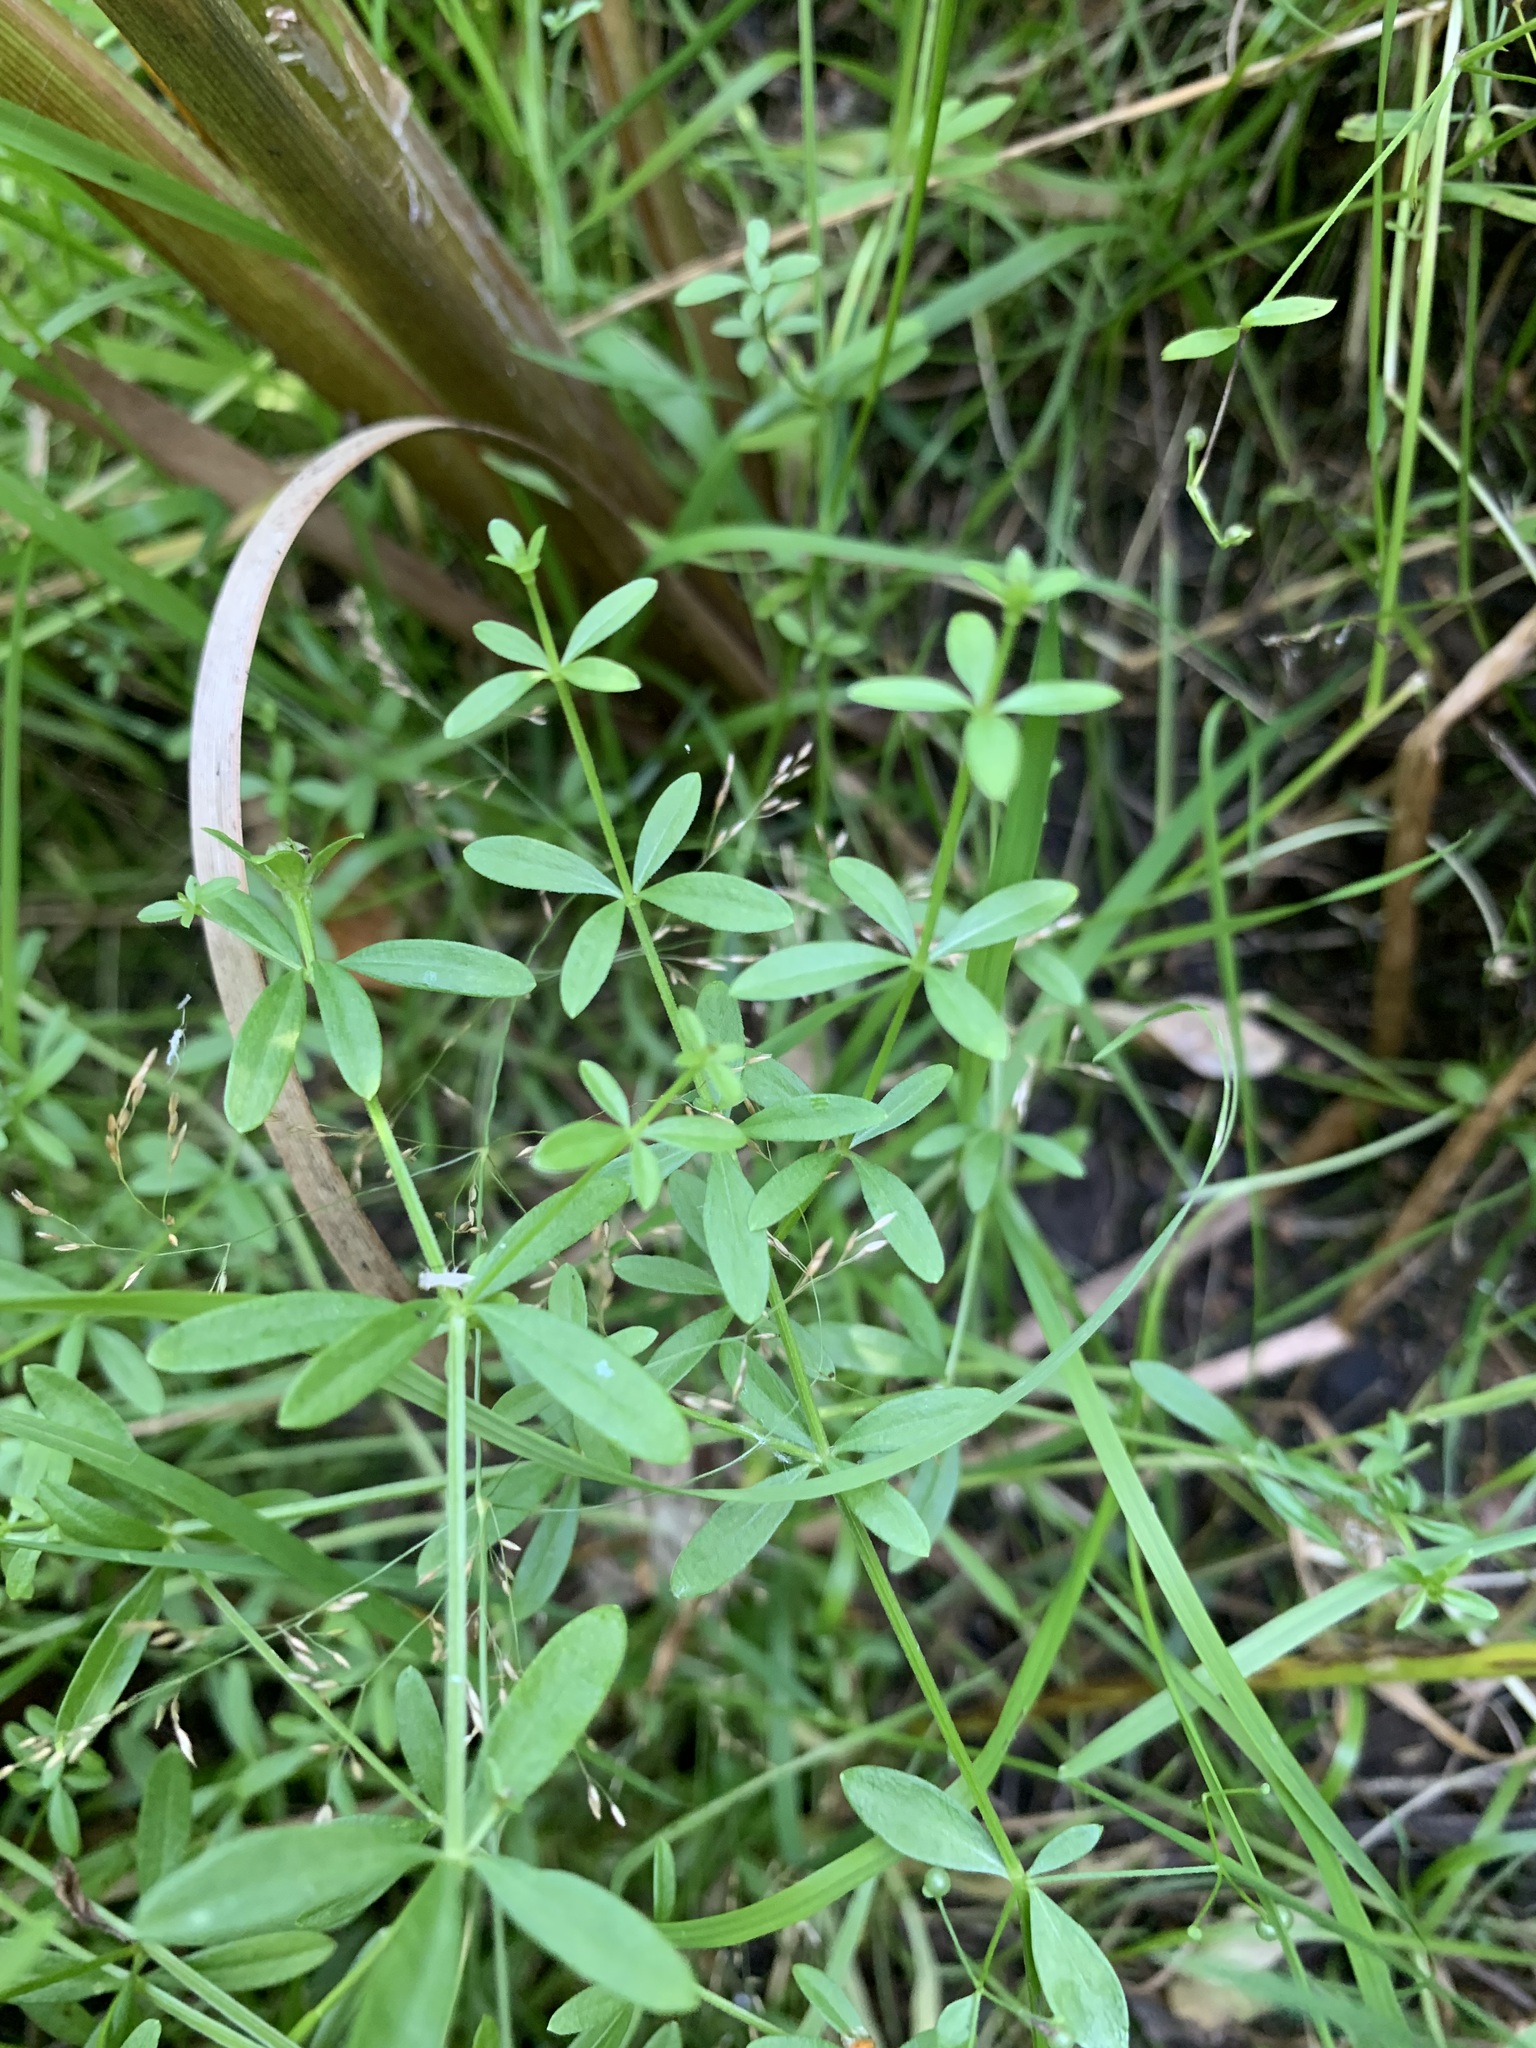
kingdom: Plantae
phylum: Tracheophyta
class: Magnoliopsida
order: Gentianales
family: Rubiaceae
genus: Galium
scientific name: Galium palustre
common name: Common marsh-bedstraw
